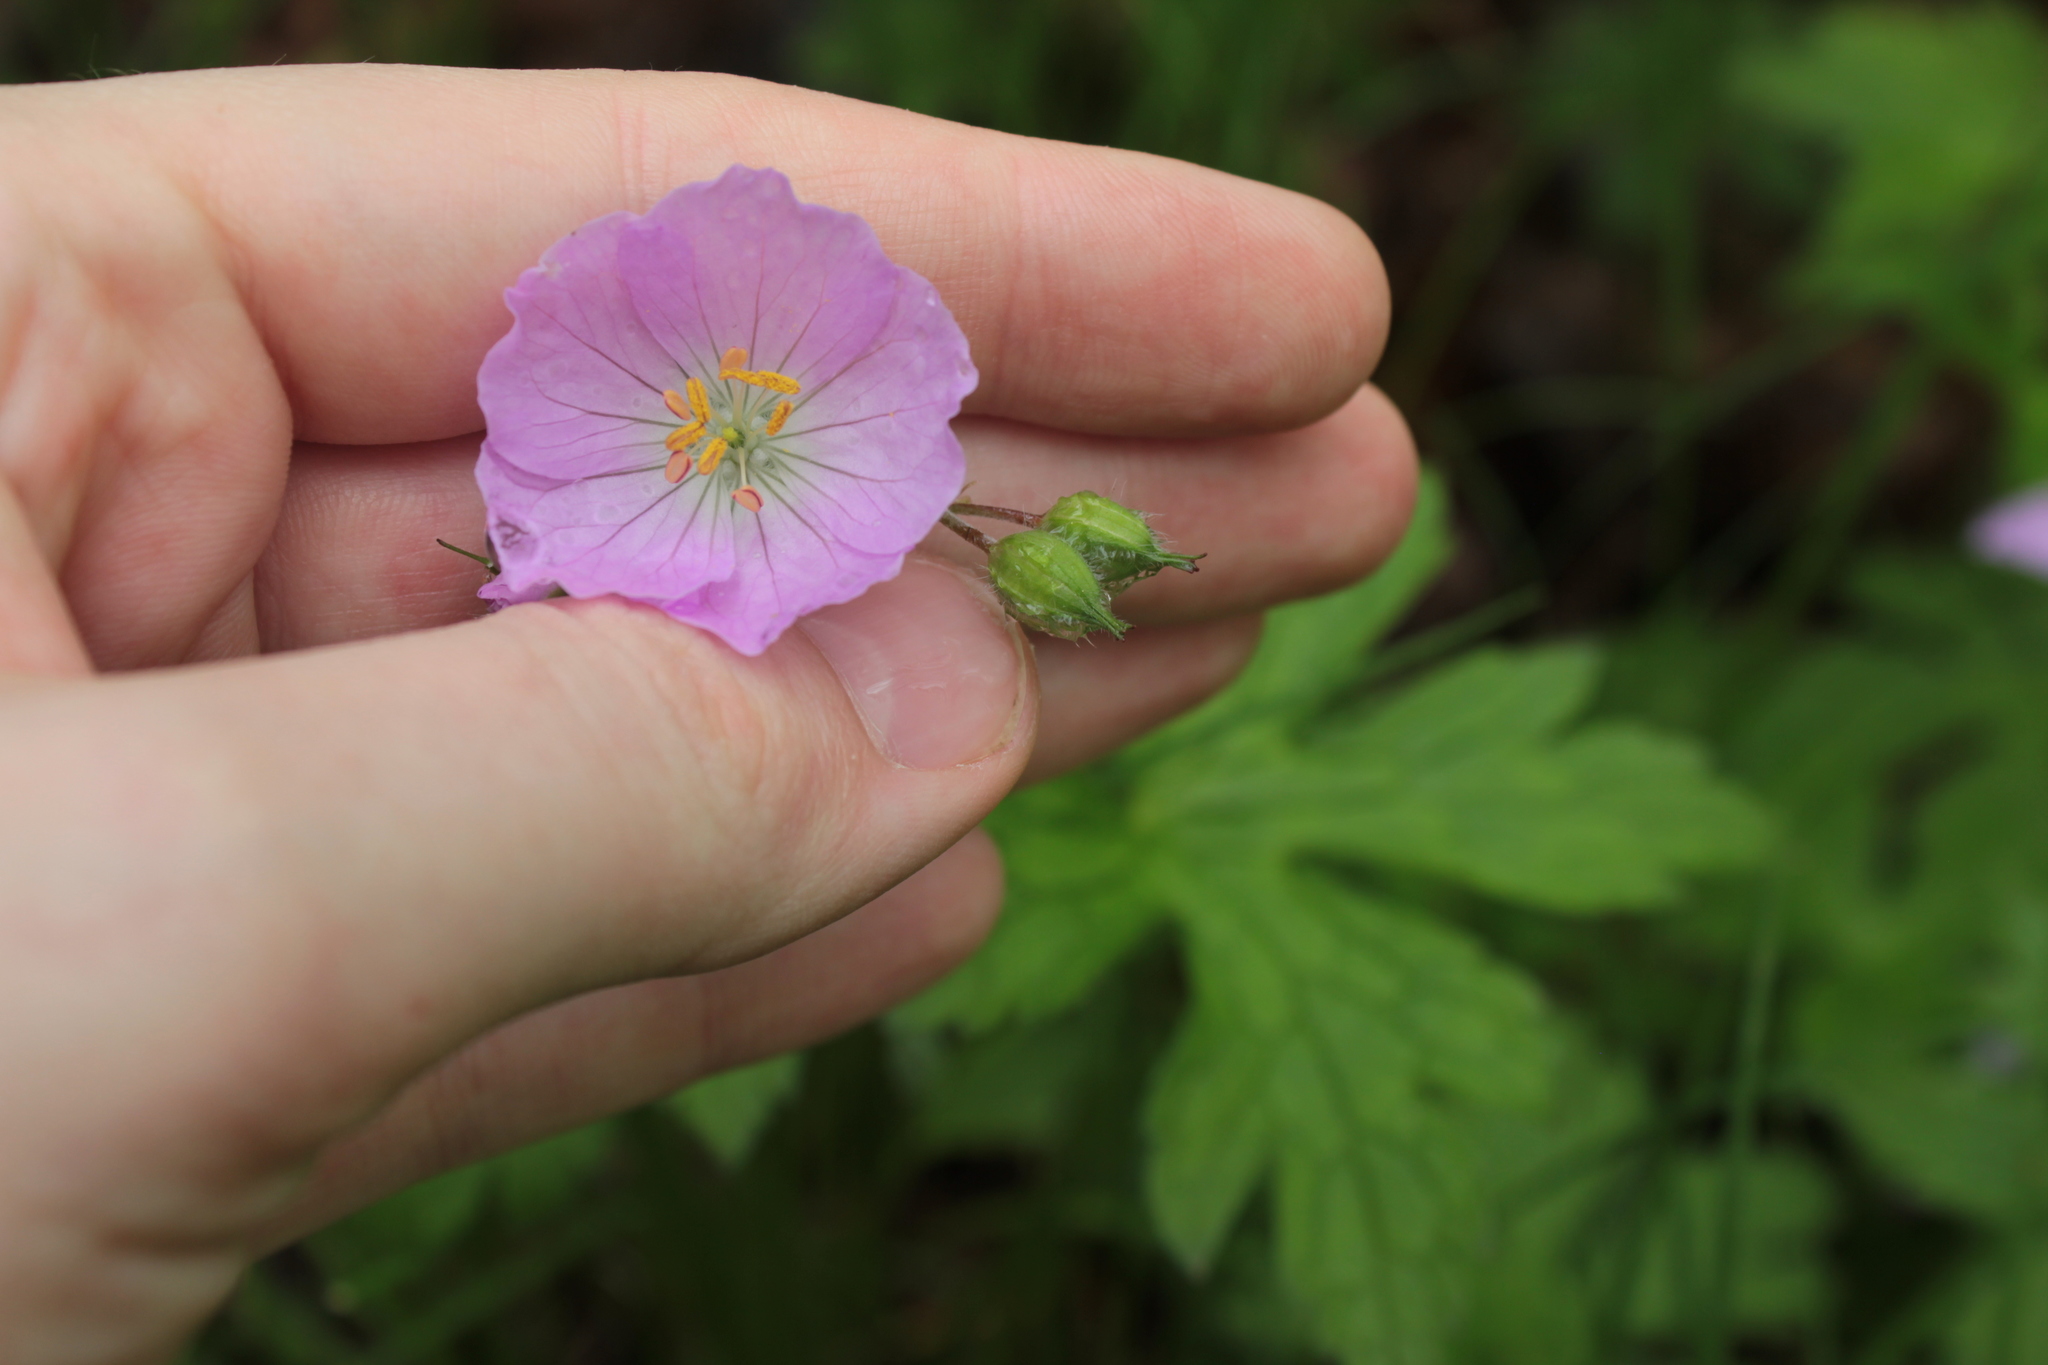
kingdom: Plantae
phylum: Tracheophyta
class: Magnoliopsida
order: Geraniales
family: Geraniaceae
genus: Geranium
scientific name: Geranium maculatum
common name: Spotted geranium
